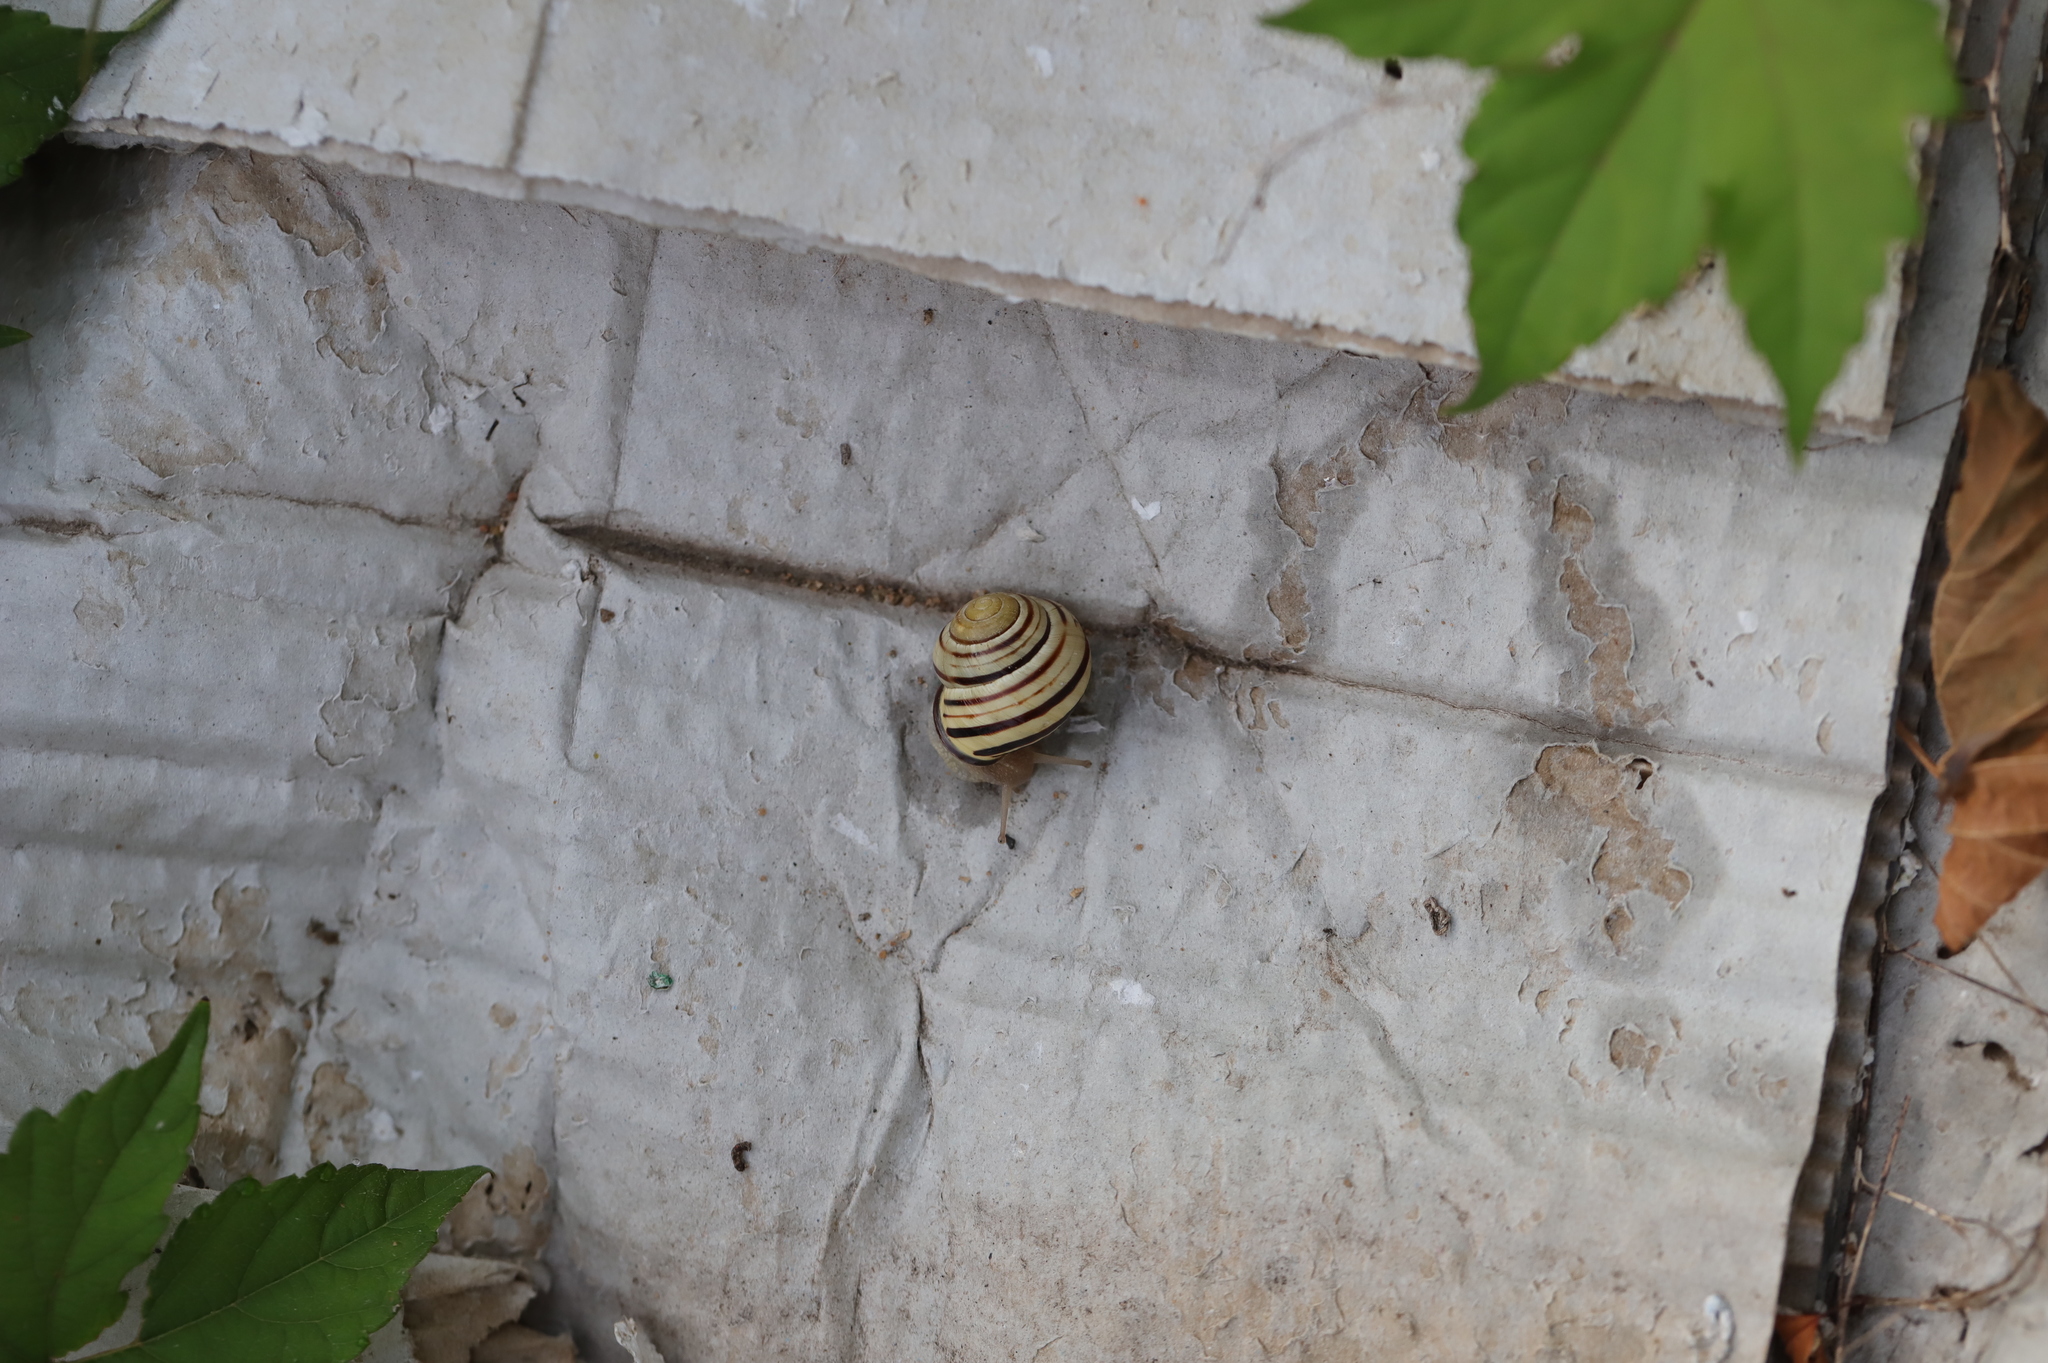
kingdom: Animalia
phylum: Mollusca
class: Gastropoda
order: Stylommatophora
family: Helicidae
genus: Cepaea
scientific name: Cepaea nemoralis
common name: Grovesnail
